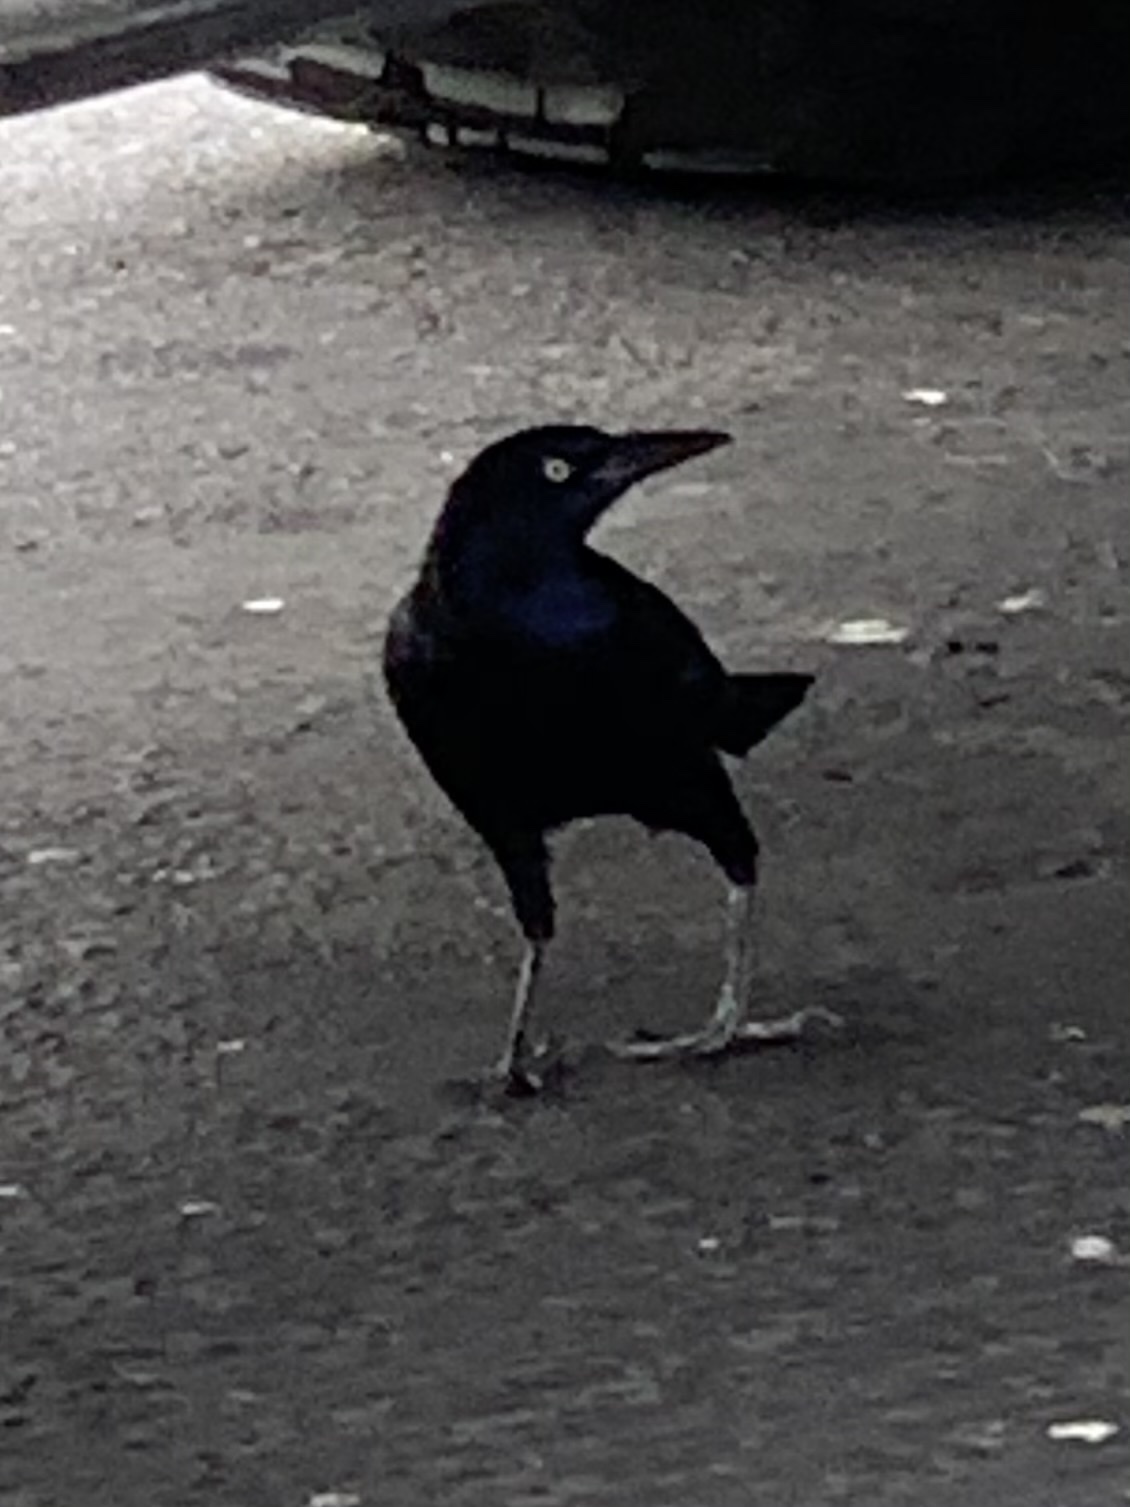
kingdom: Animalia
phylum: Chordata
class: Aves
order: Passeriformes
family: Icteridae
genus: Quiscalus
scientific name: Quiscalus mexicanus
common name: Great-tailed grackle
